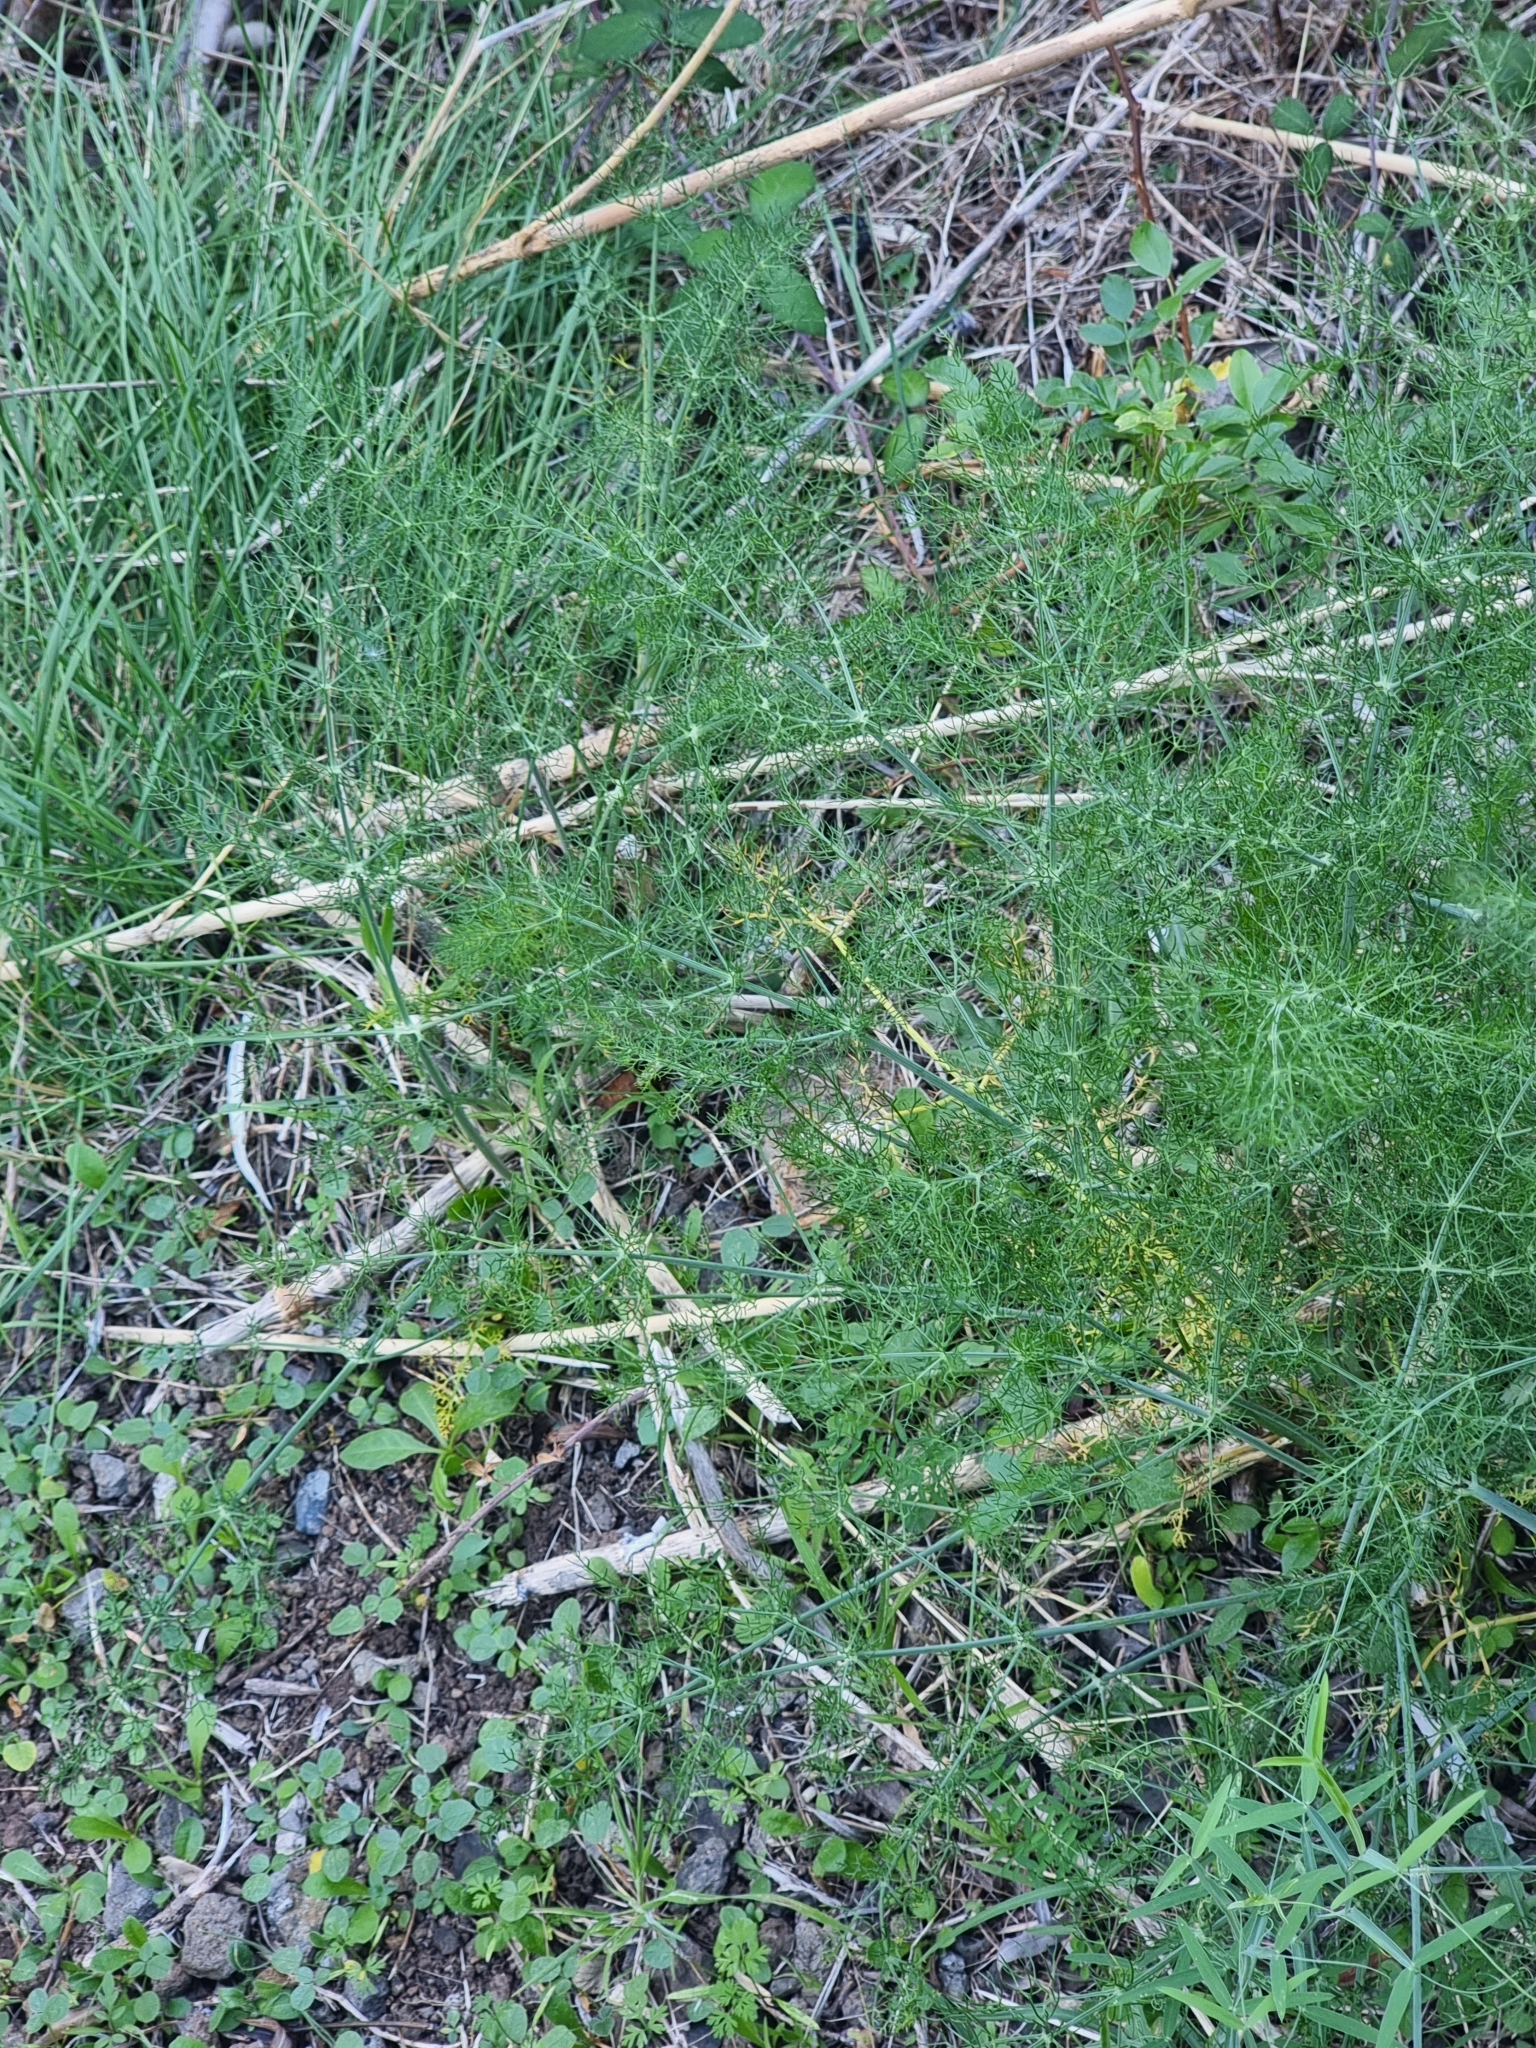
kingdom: Plantae
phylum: Tracheophyta
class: Magnoliopsida
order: Apiales
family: Apiaceae
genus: Foeniculum
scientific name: Foeniculum vulgare
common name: Fennel
